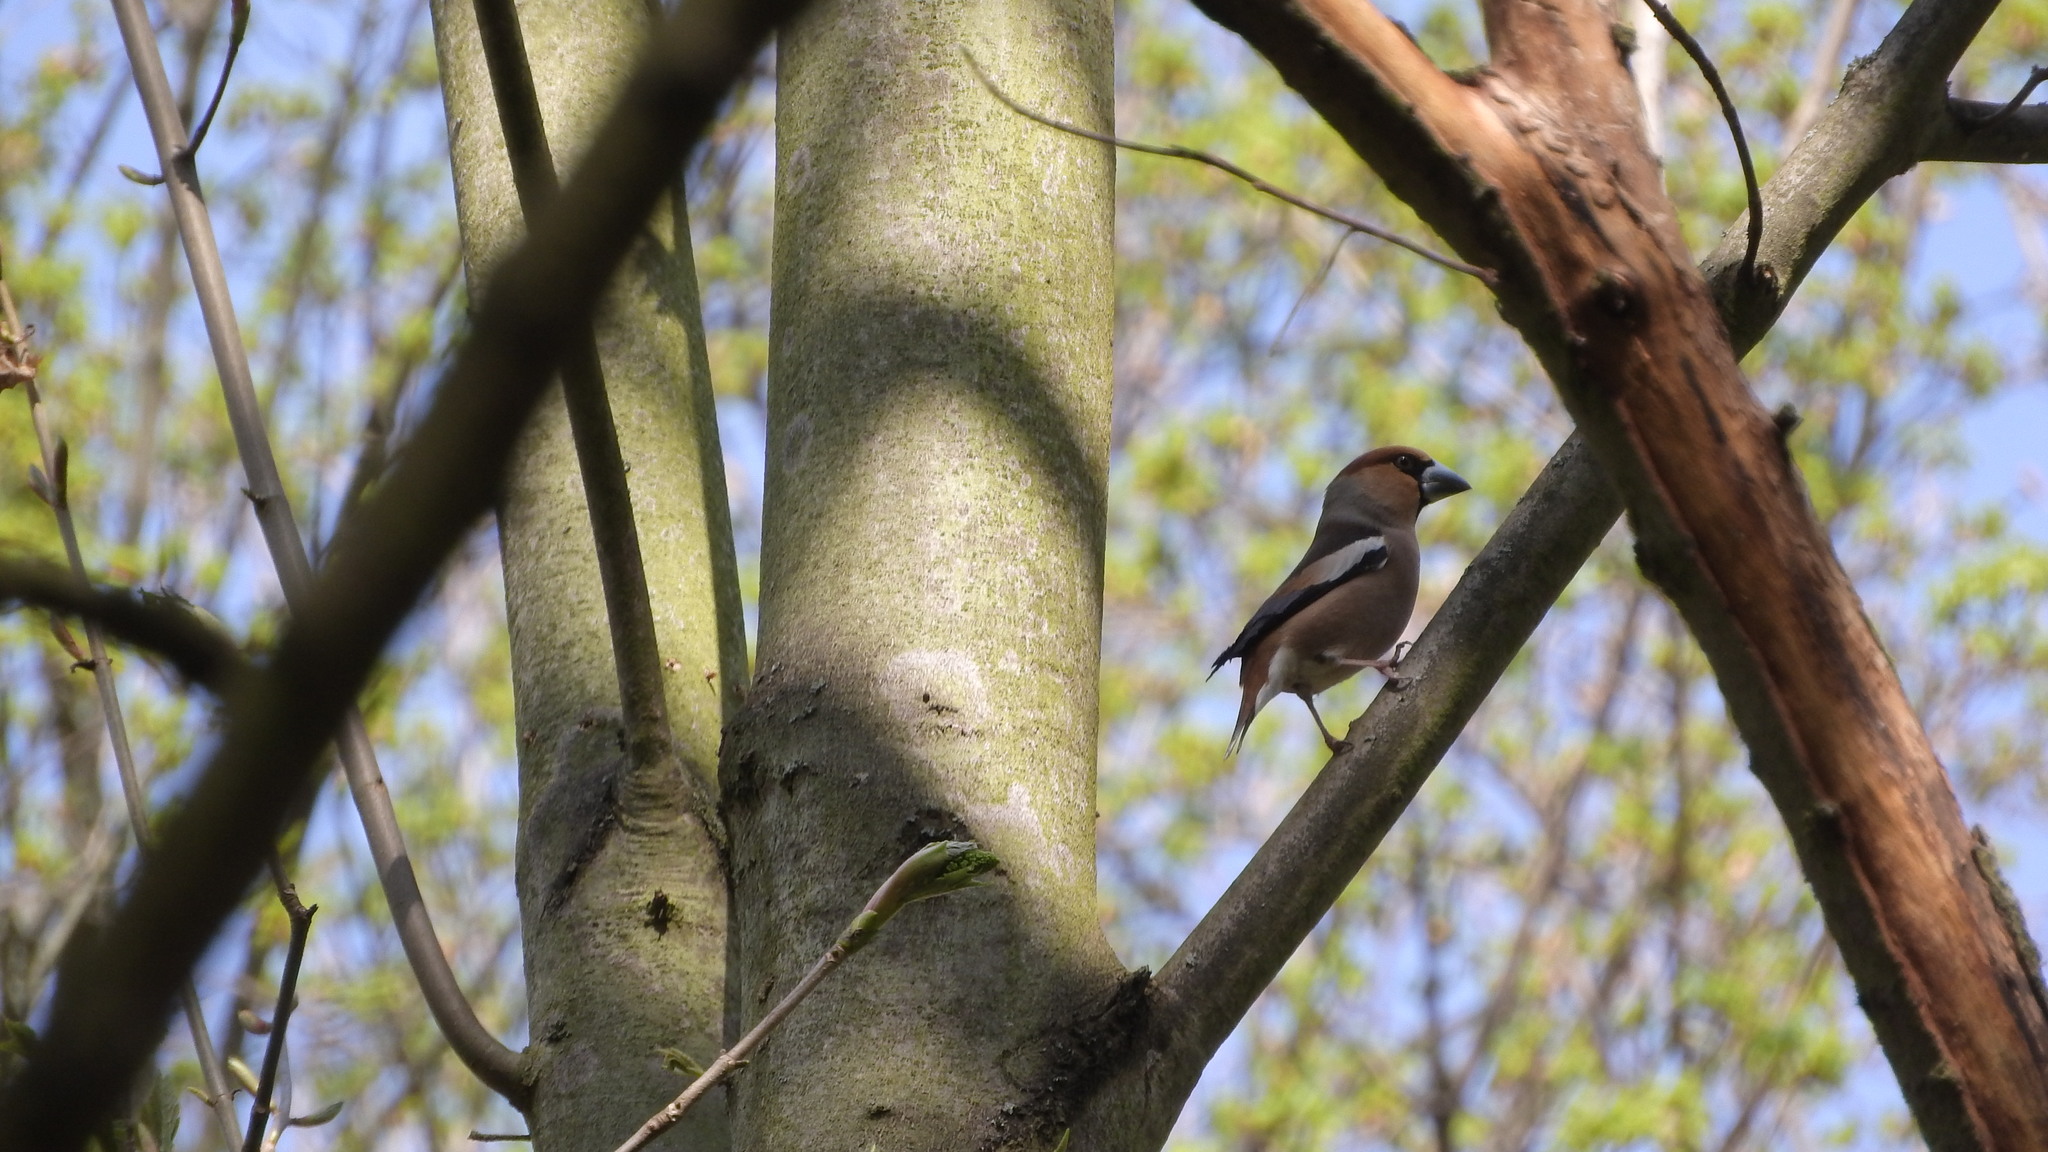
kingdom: Animalia
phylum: Chordata
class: Aves
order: Passeriformes
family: Fringillidae
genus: Coccothraustes
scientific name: Coccothraustes coccothraustes
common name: Hawfinch
